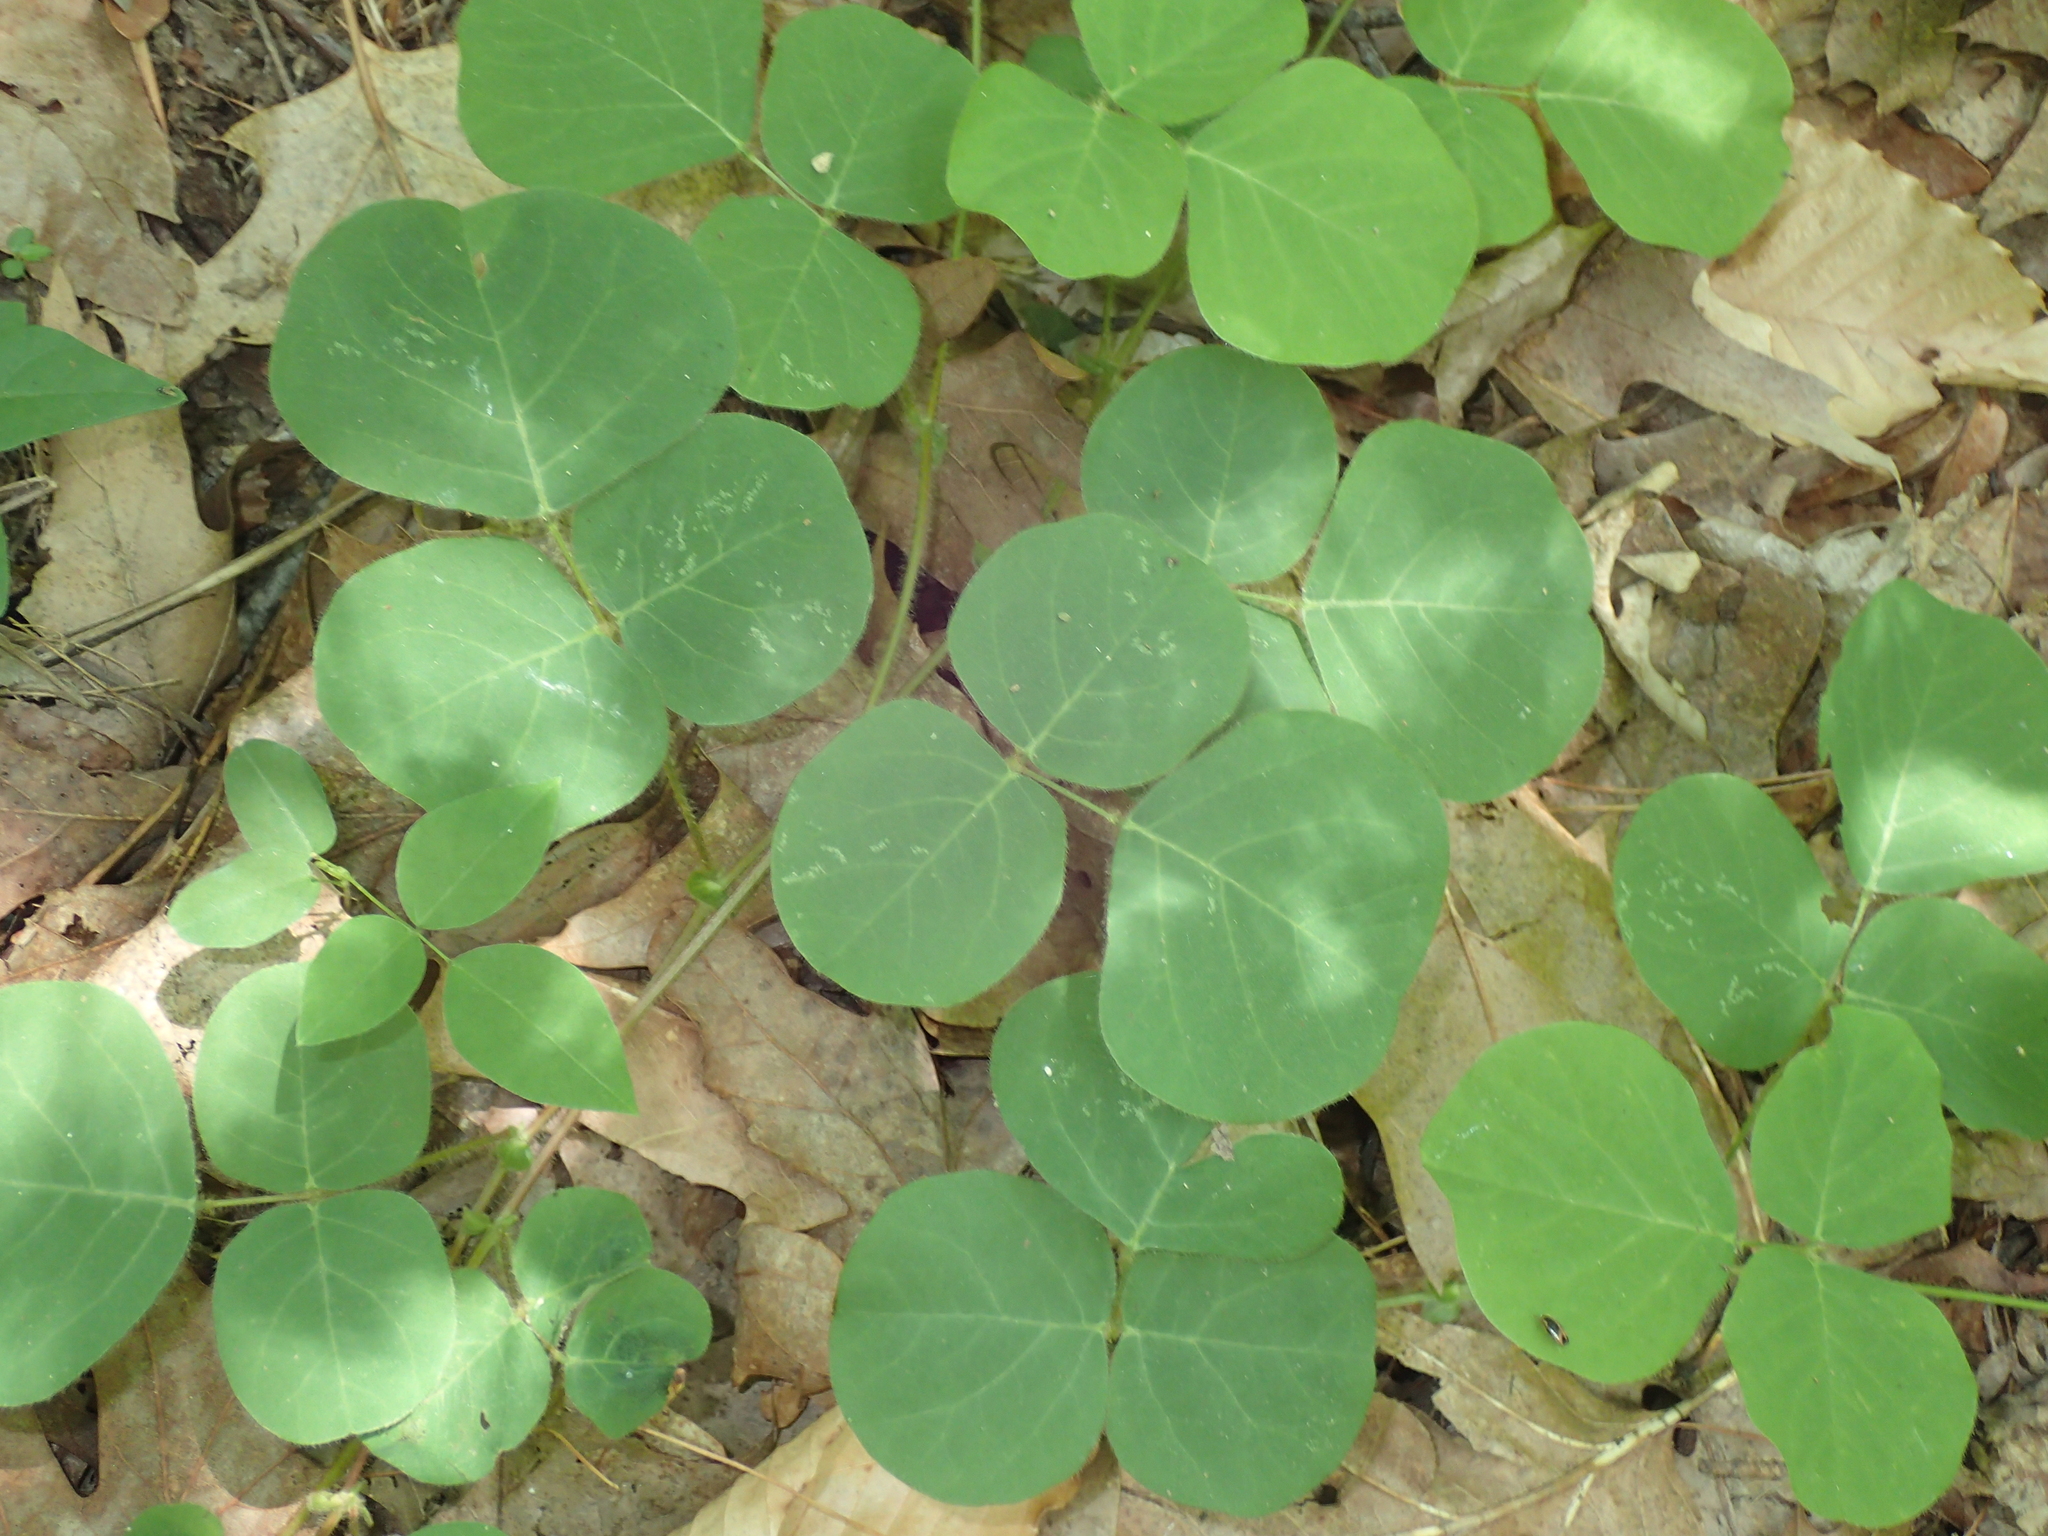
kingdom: Plantae
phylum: Tracheophyta
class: Magnoliopsida
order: Fabales
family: Fabaceae
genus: Desmodium
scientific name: Desmodium rotundifolium
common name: Dollarleaf
